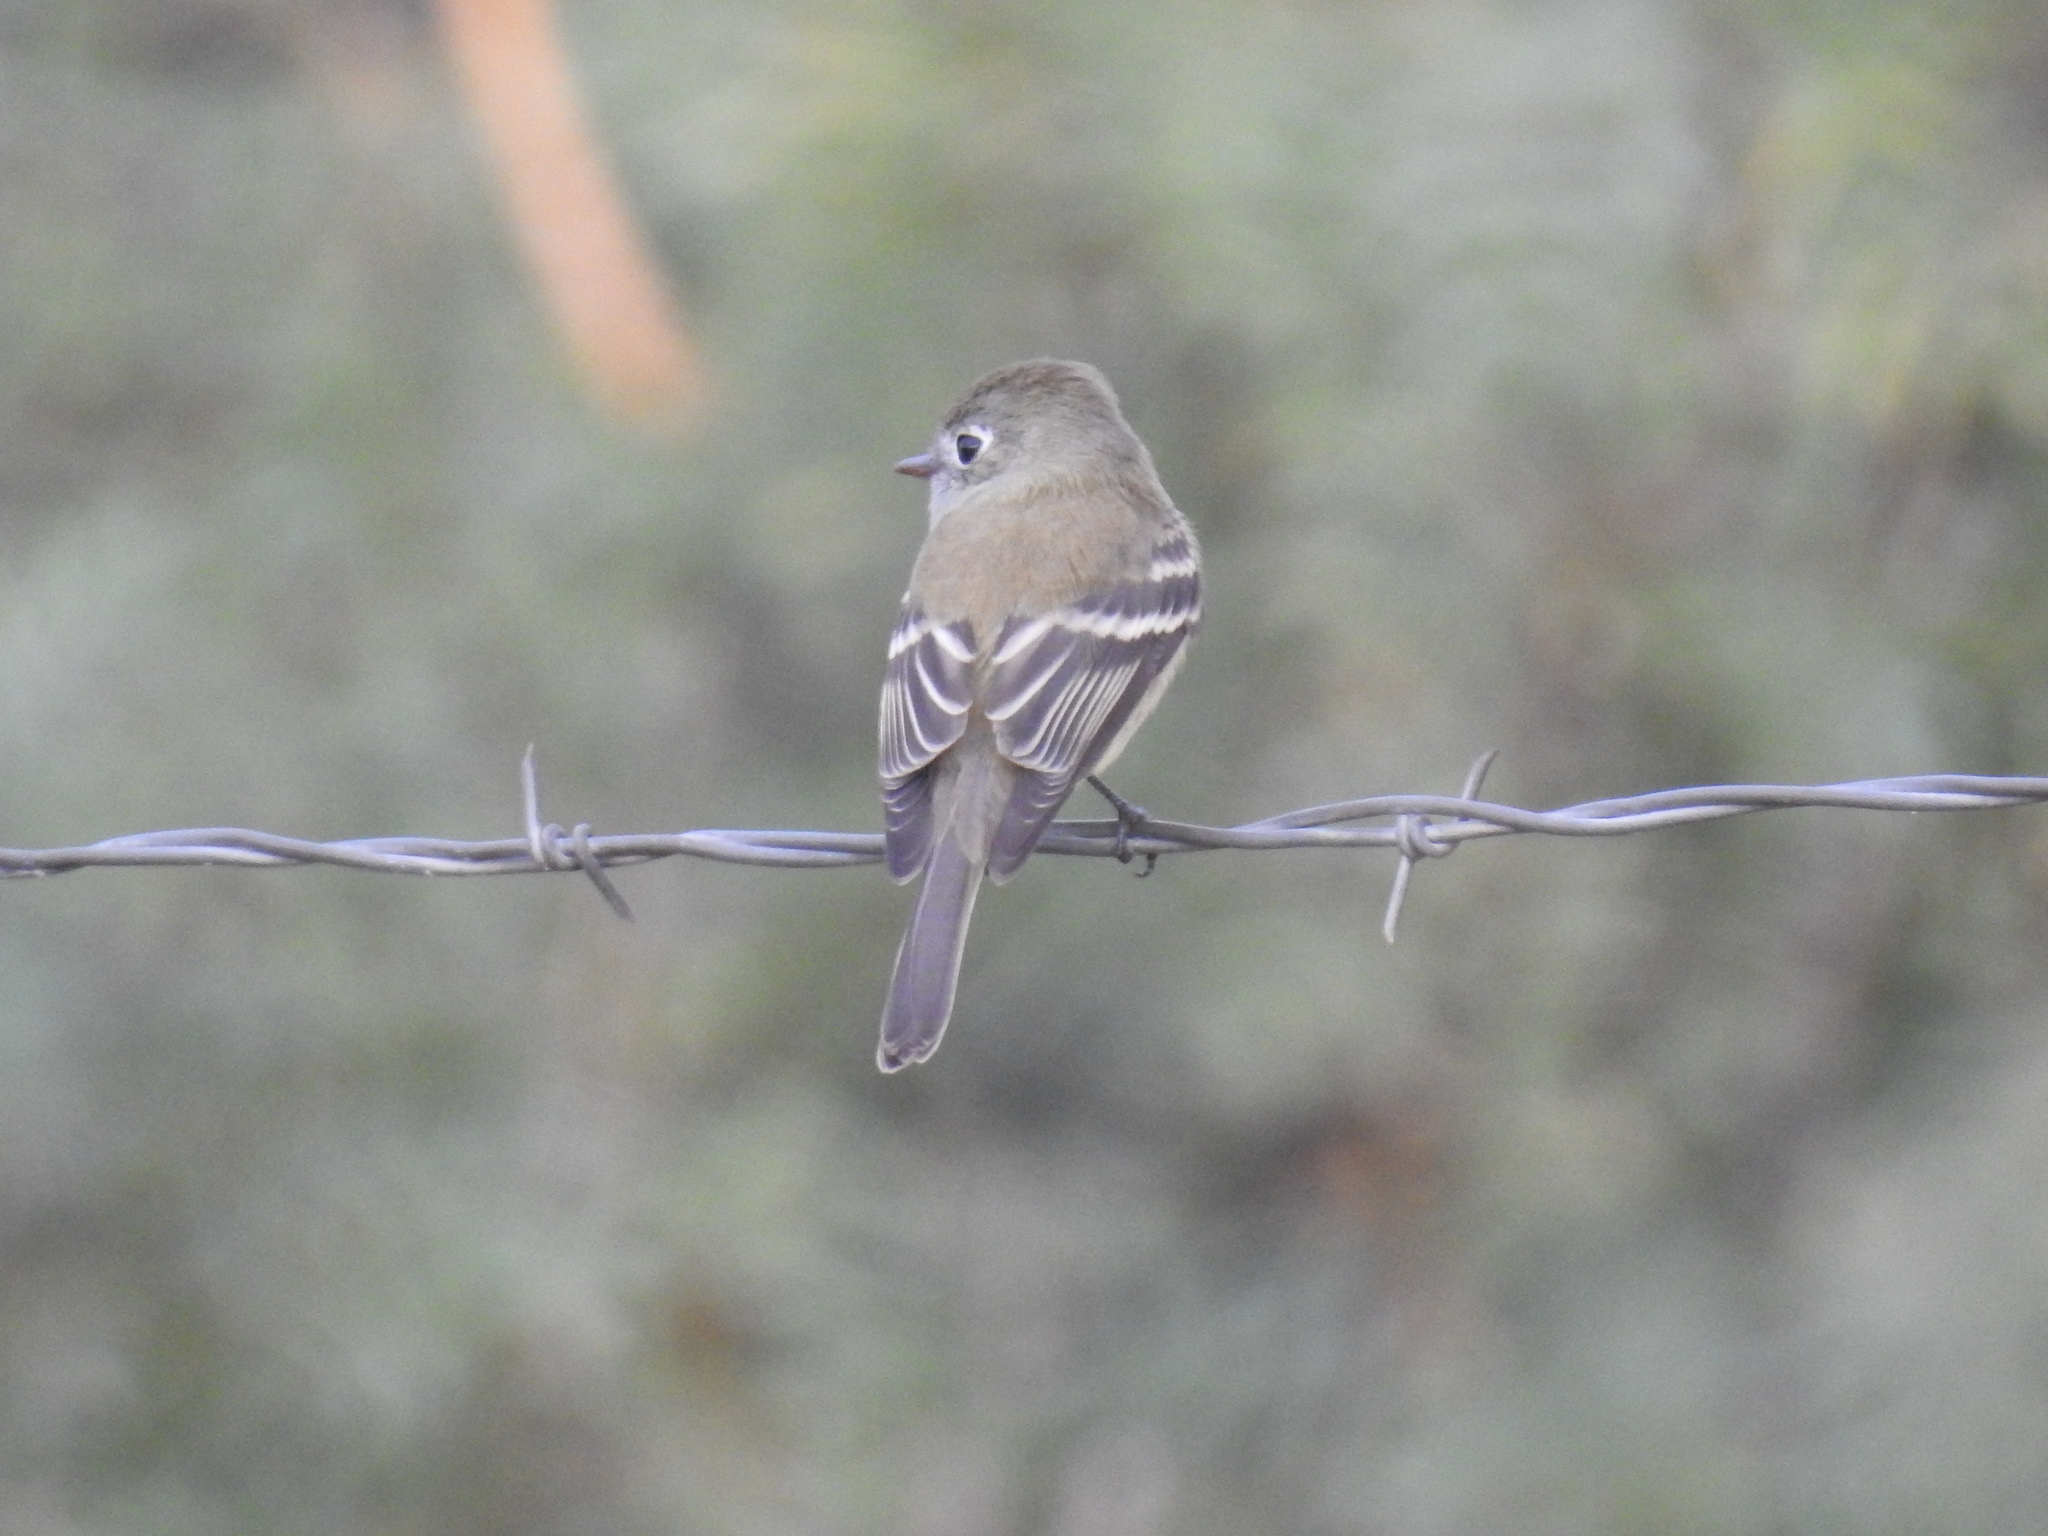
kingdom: Animalia
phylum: Chordata
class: Aves
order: Passeriformes
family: Tyrannidae
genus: Empidonax
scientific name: Empidonax hammondii
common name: Hammond's flycatcher
